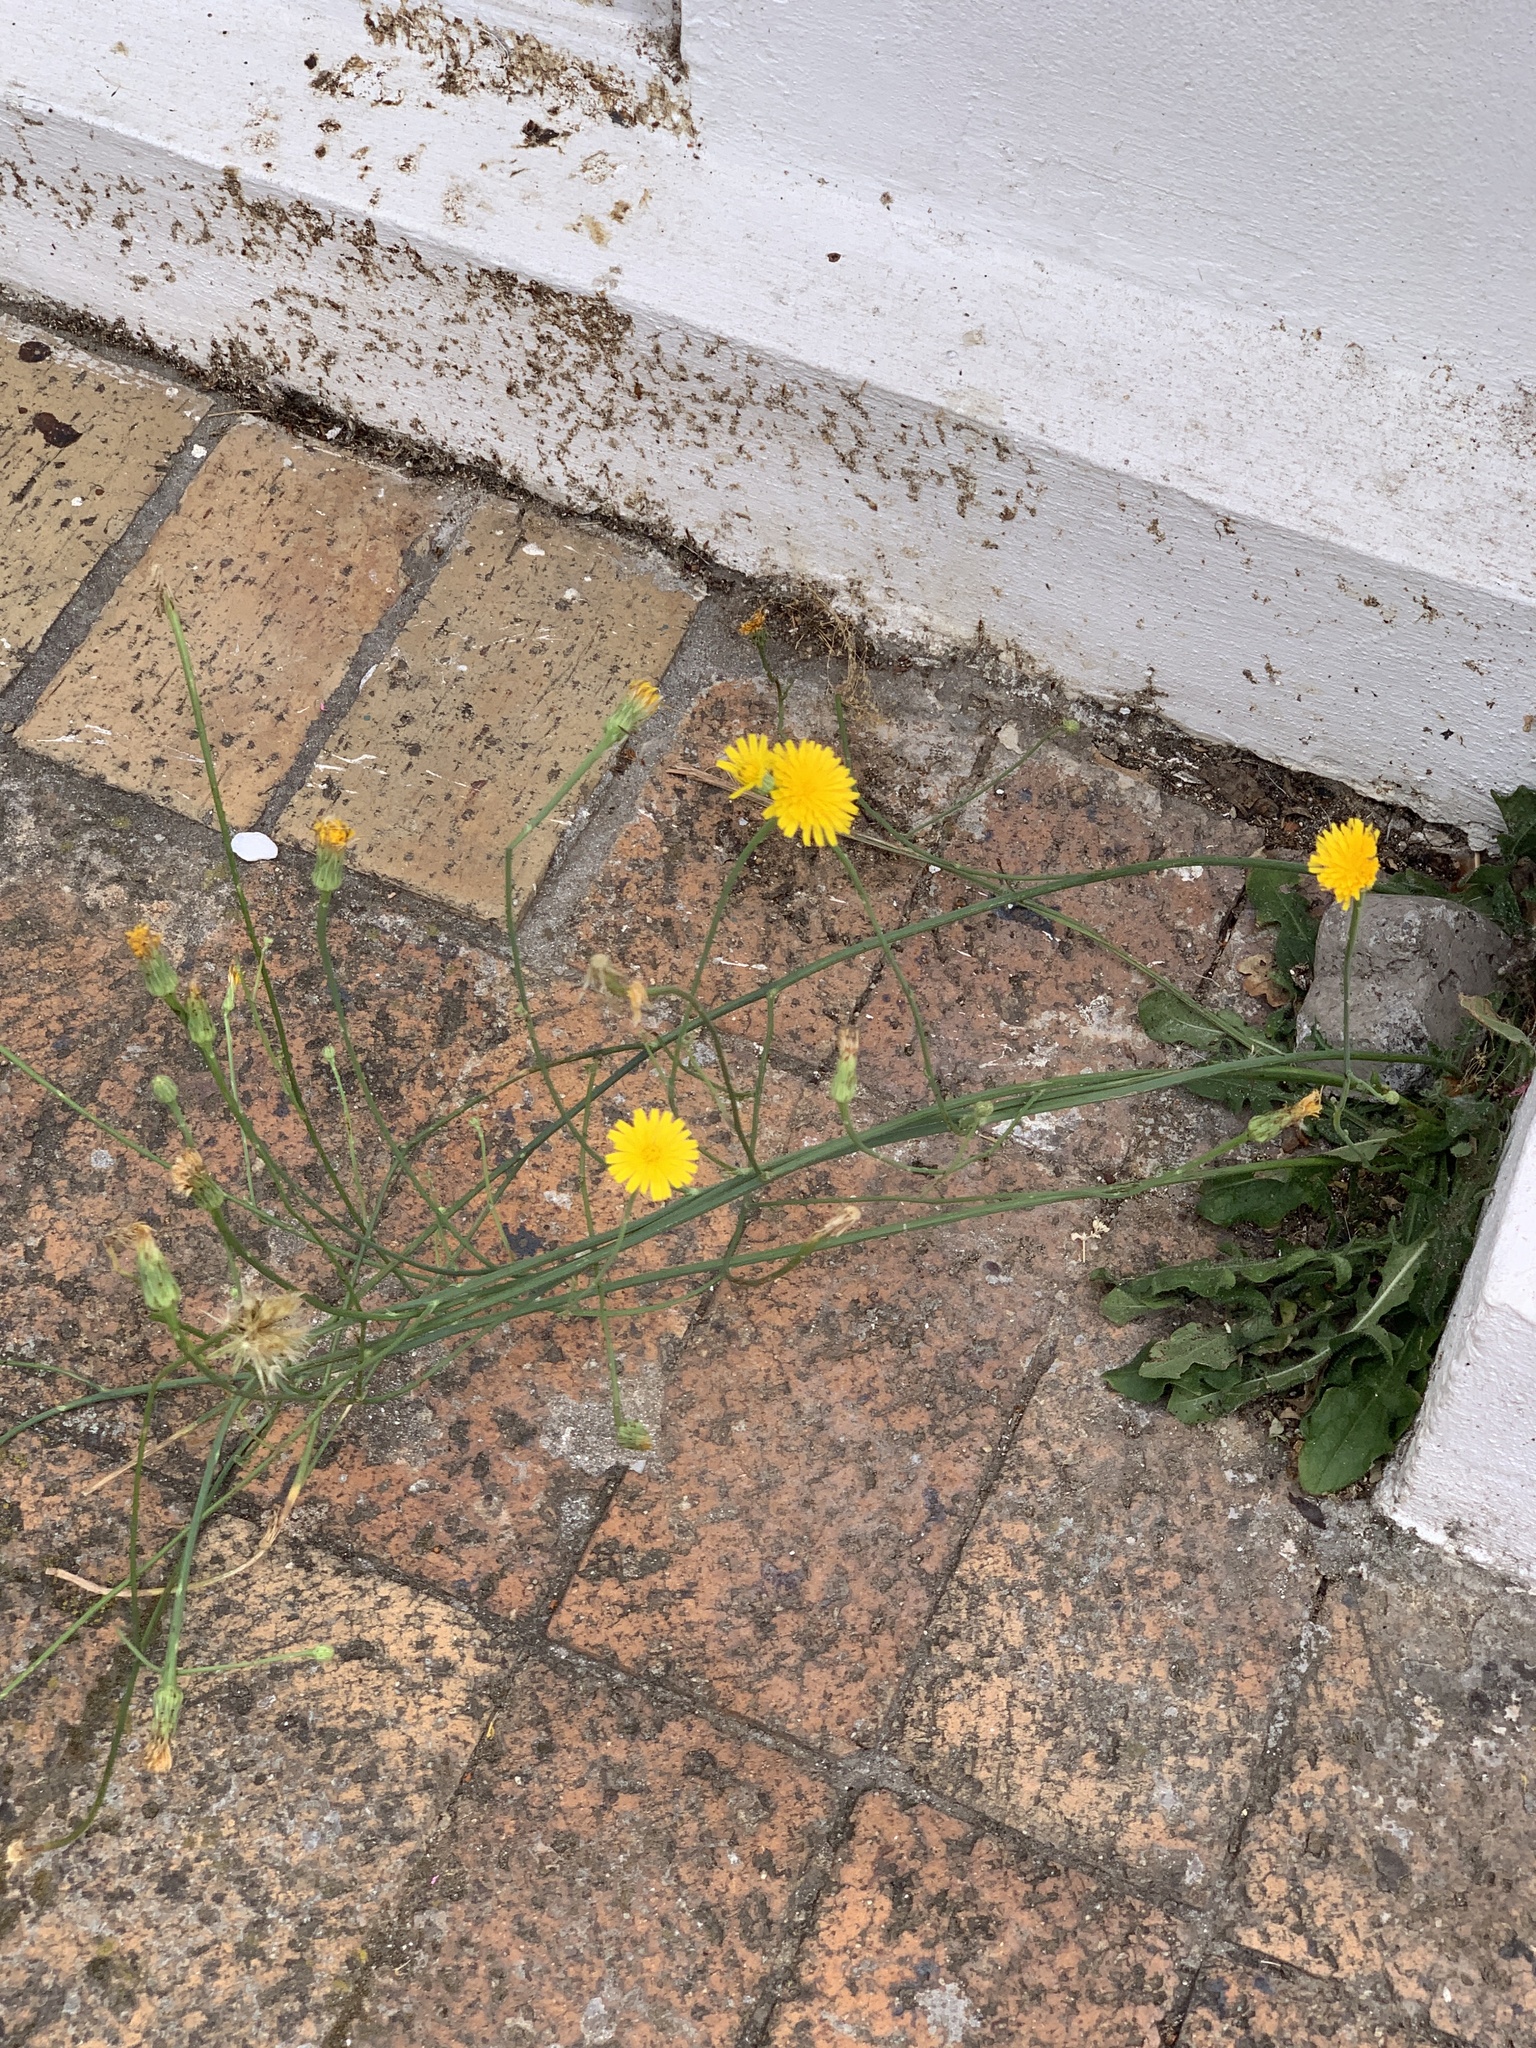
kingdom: Plantae
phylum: Tracheophyta
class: Magnoliopsida
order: Asterales
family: Asteraceae
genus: Hypochaeris
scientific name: Hypochaeris radicata
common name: Flatweed
